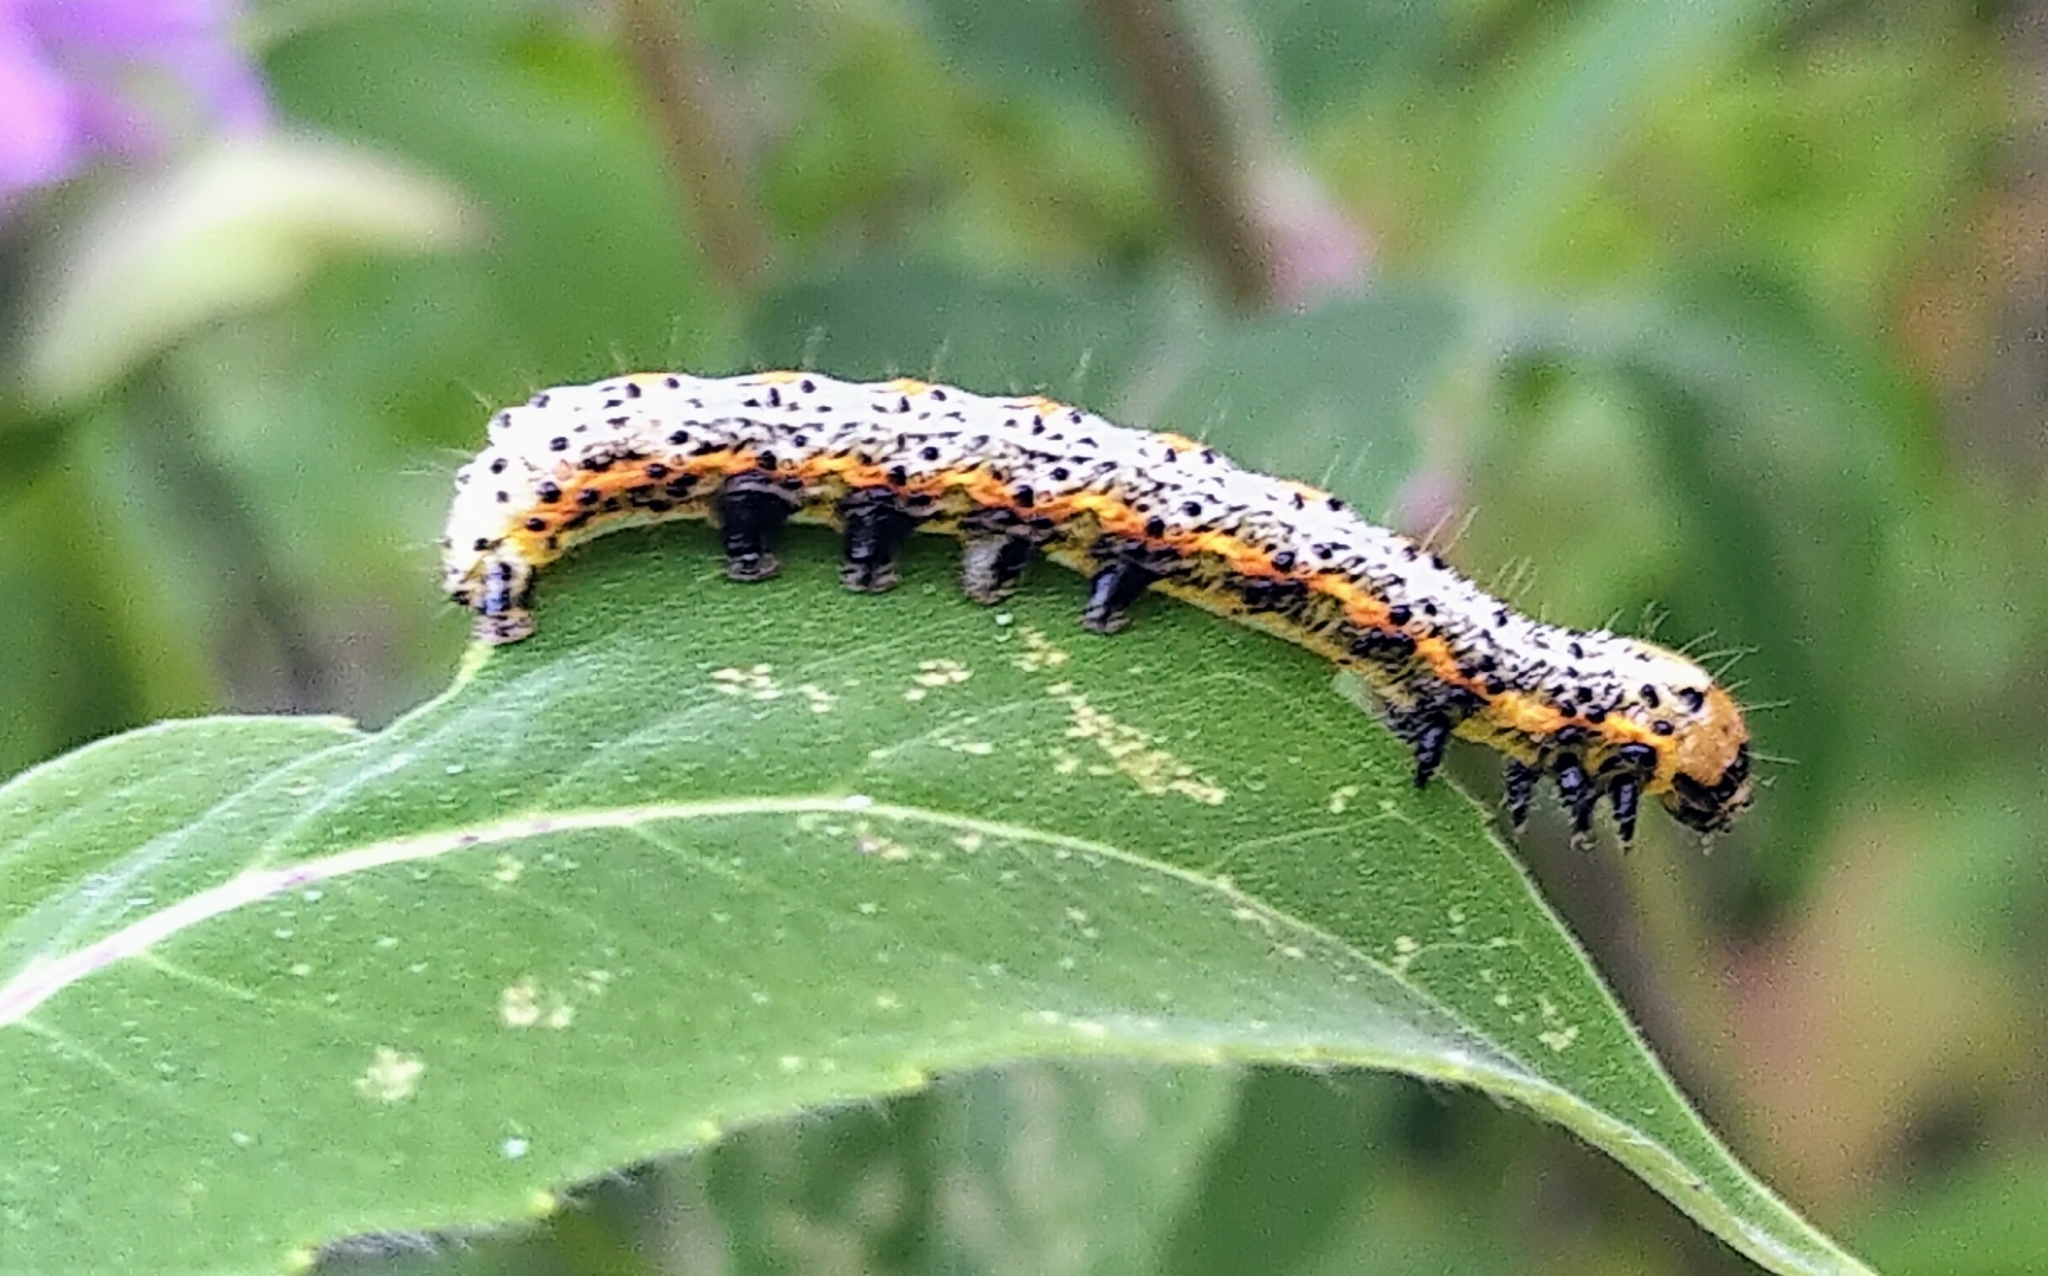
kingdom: Animalia
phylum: Arthropoda
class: Insecta
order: Lepidoptera
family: Noctuidae
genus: Pyrrhia
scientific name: Pyrrhia exprimens
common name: Purple-lined sallow
